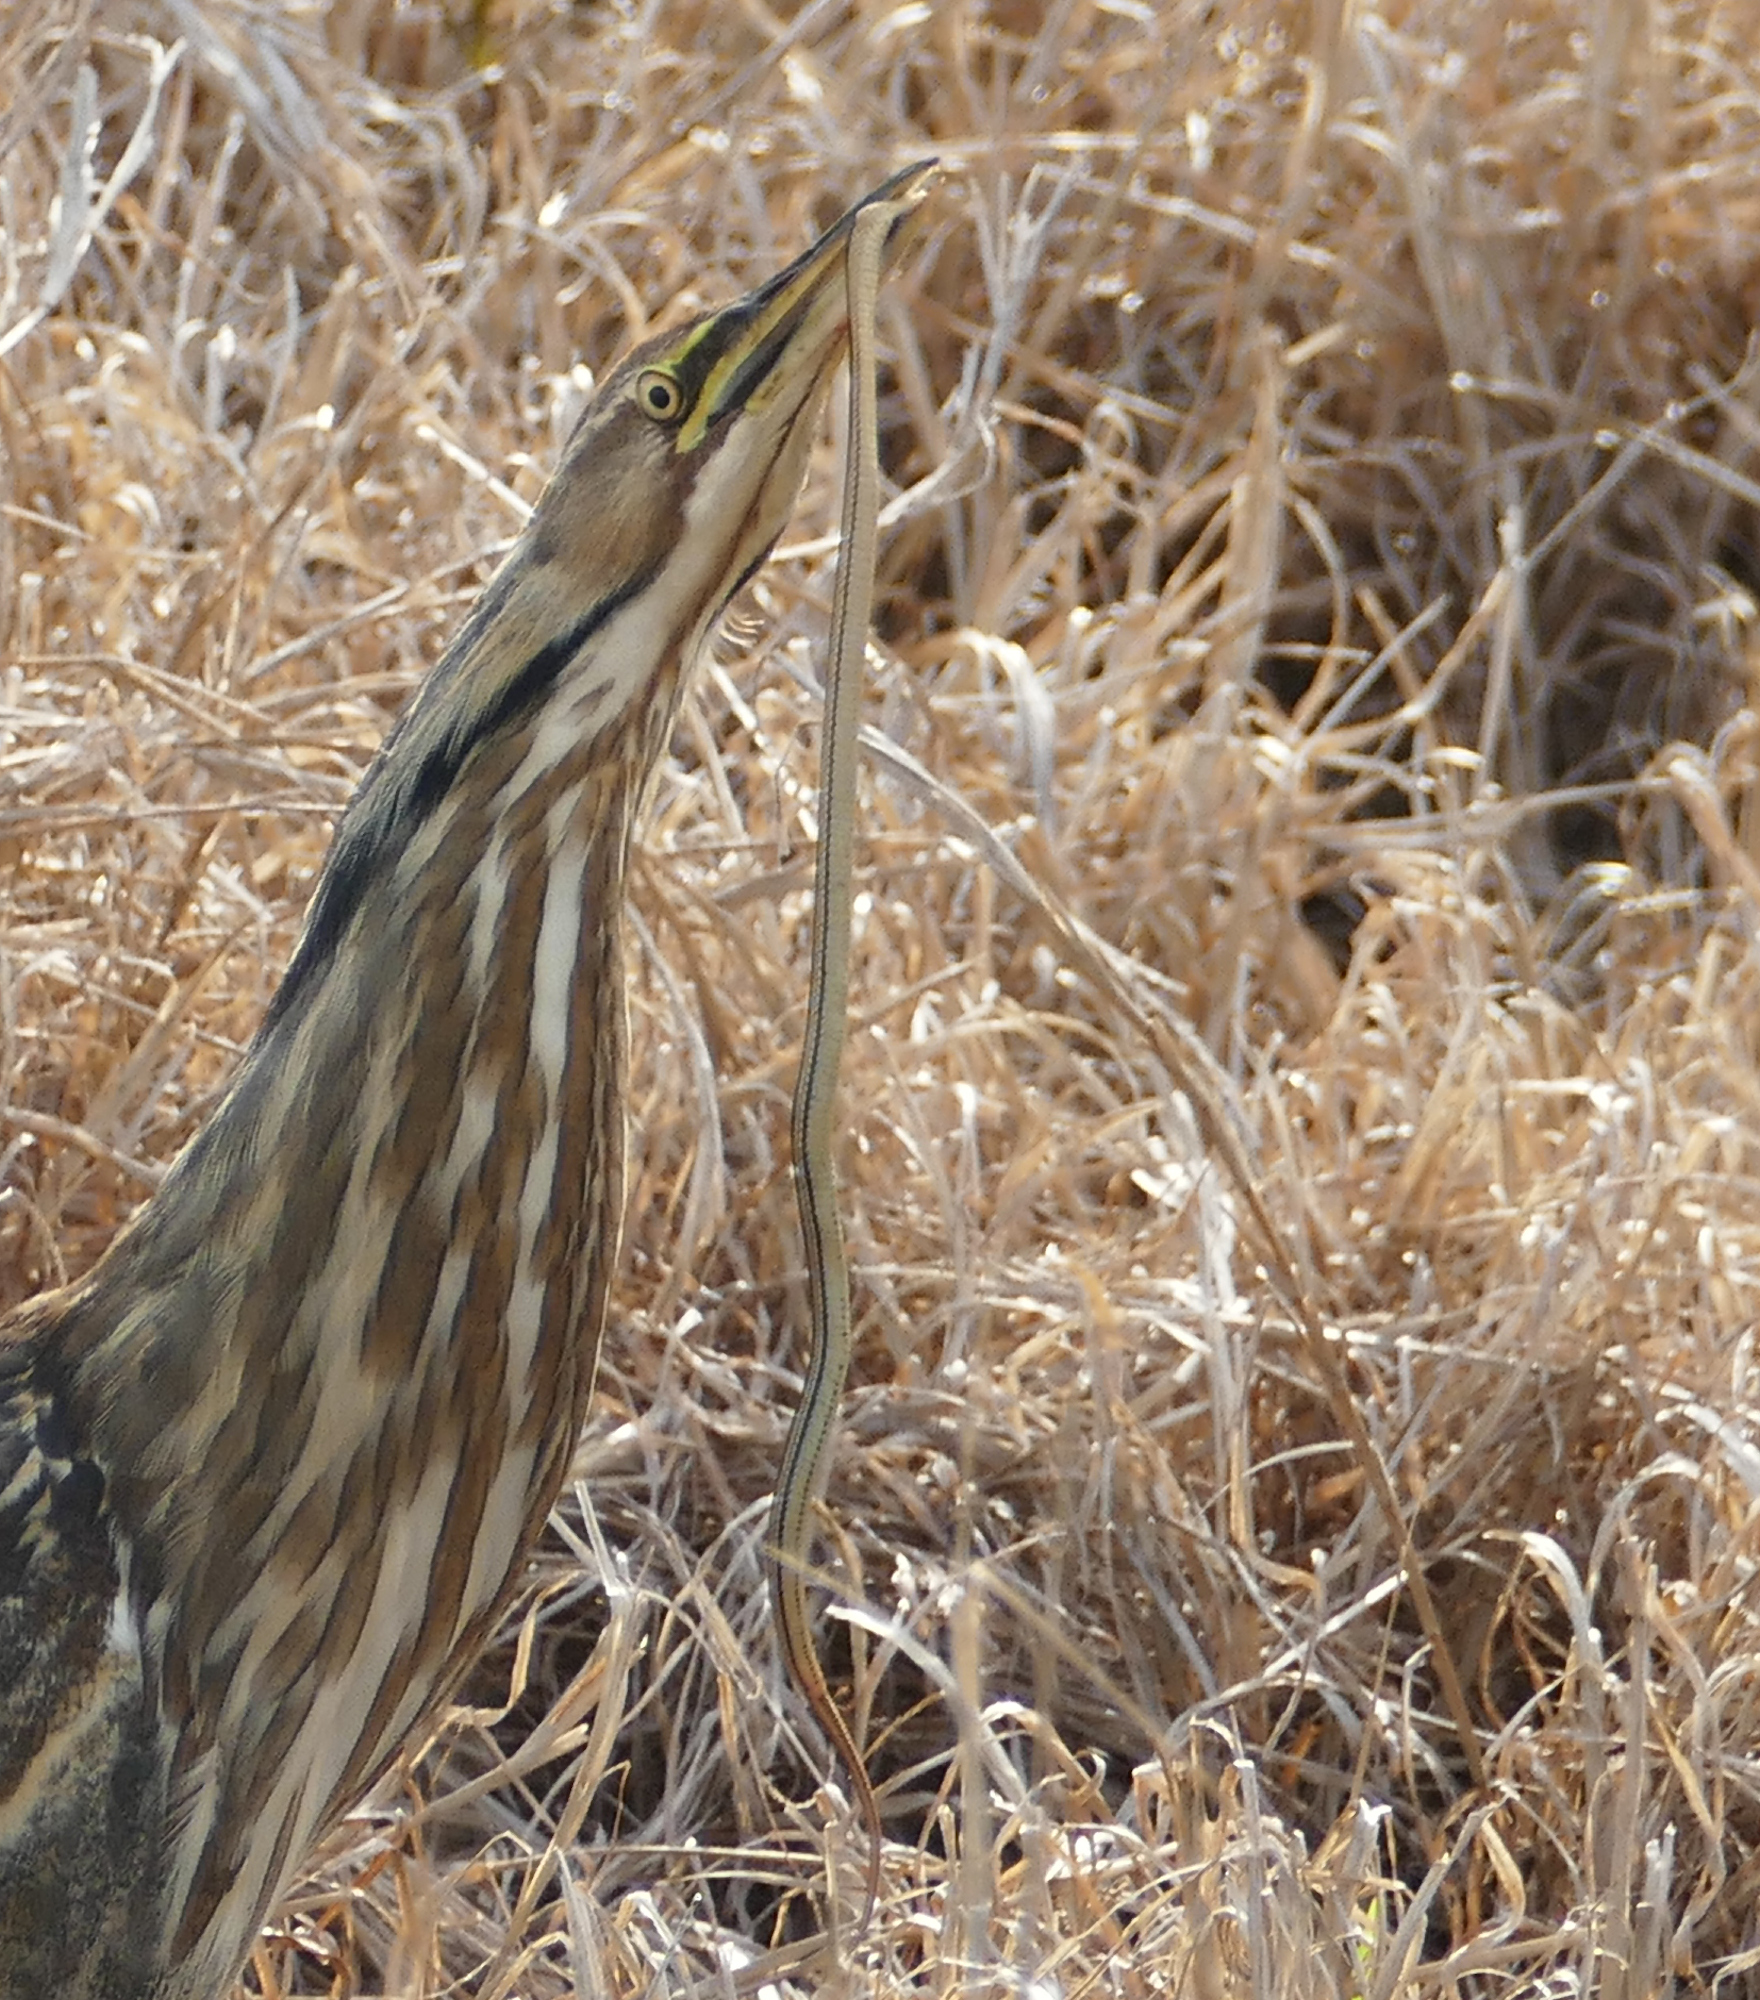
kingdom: Animalia
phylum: Chordata
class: Squamata
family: Colubridae
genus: Regina
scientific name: Regina grahamii
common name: Graham's crayfish snake
